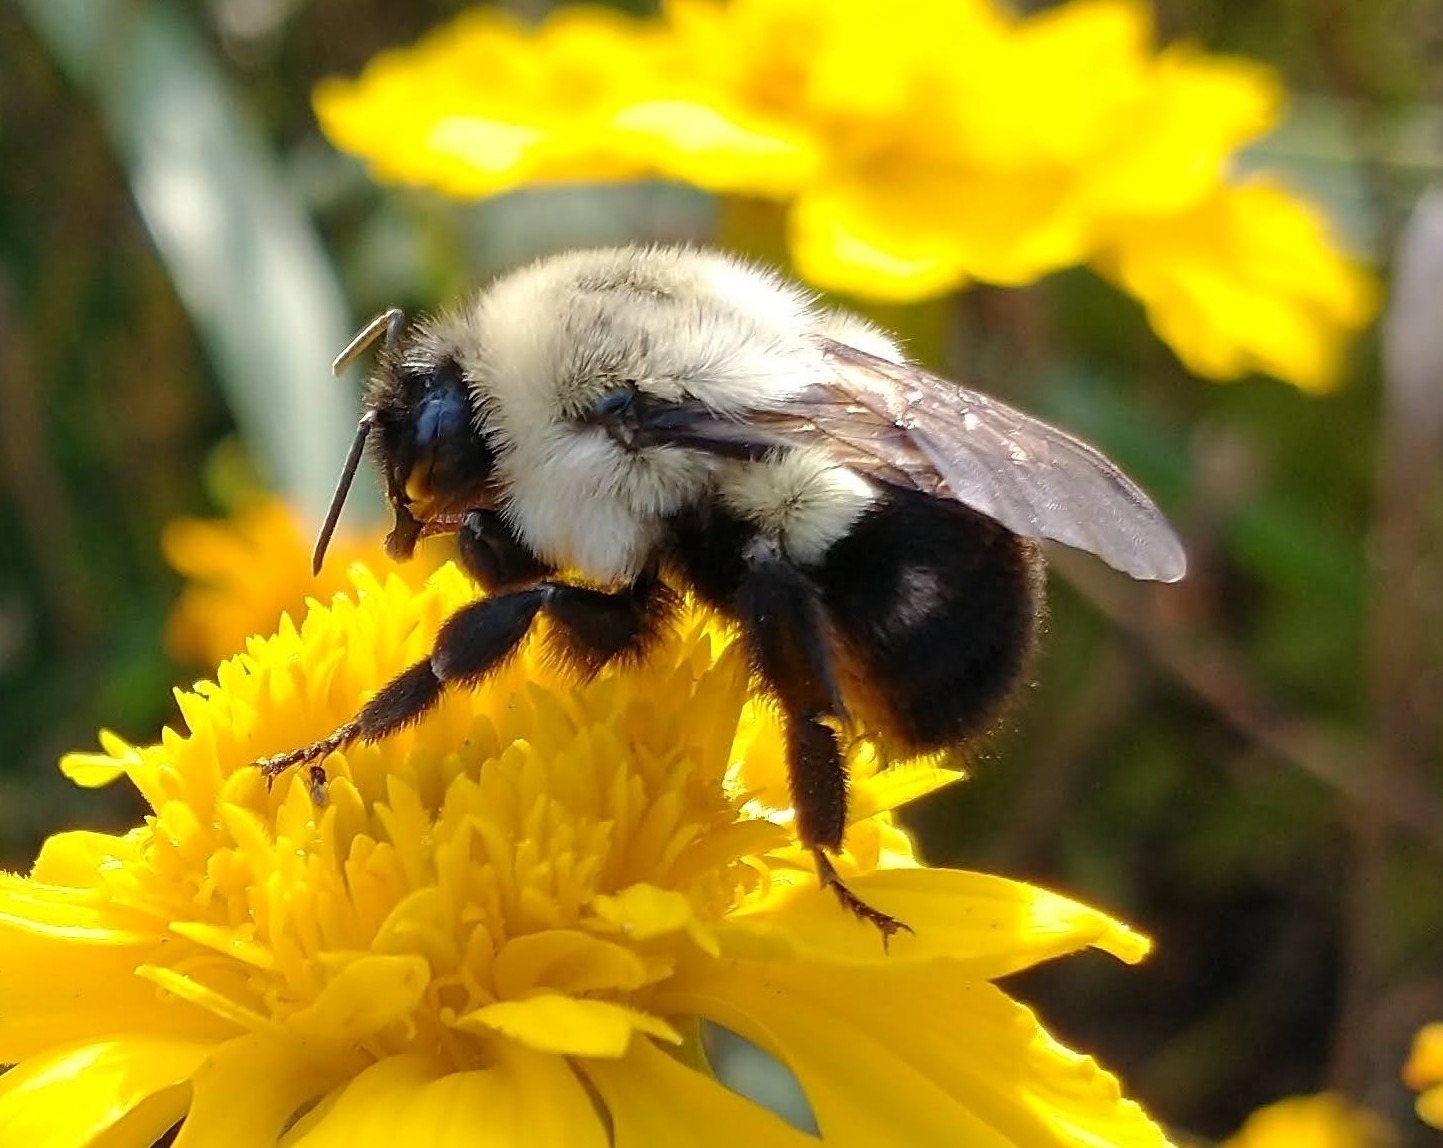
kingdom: Animalia
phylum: Arthropoda
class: Insecta
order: Hymenoptera
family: Apidae
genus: Bombus
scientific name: Bombus impatiens
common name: Common eastern bumble bee
